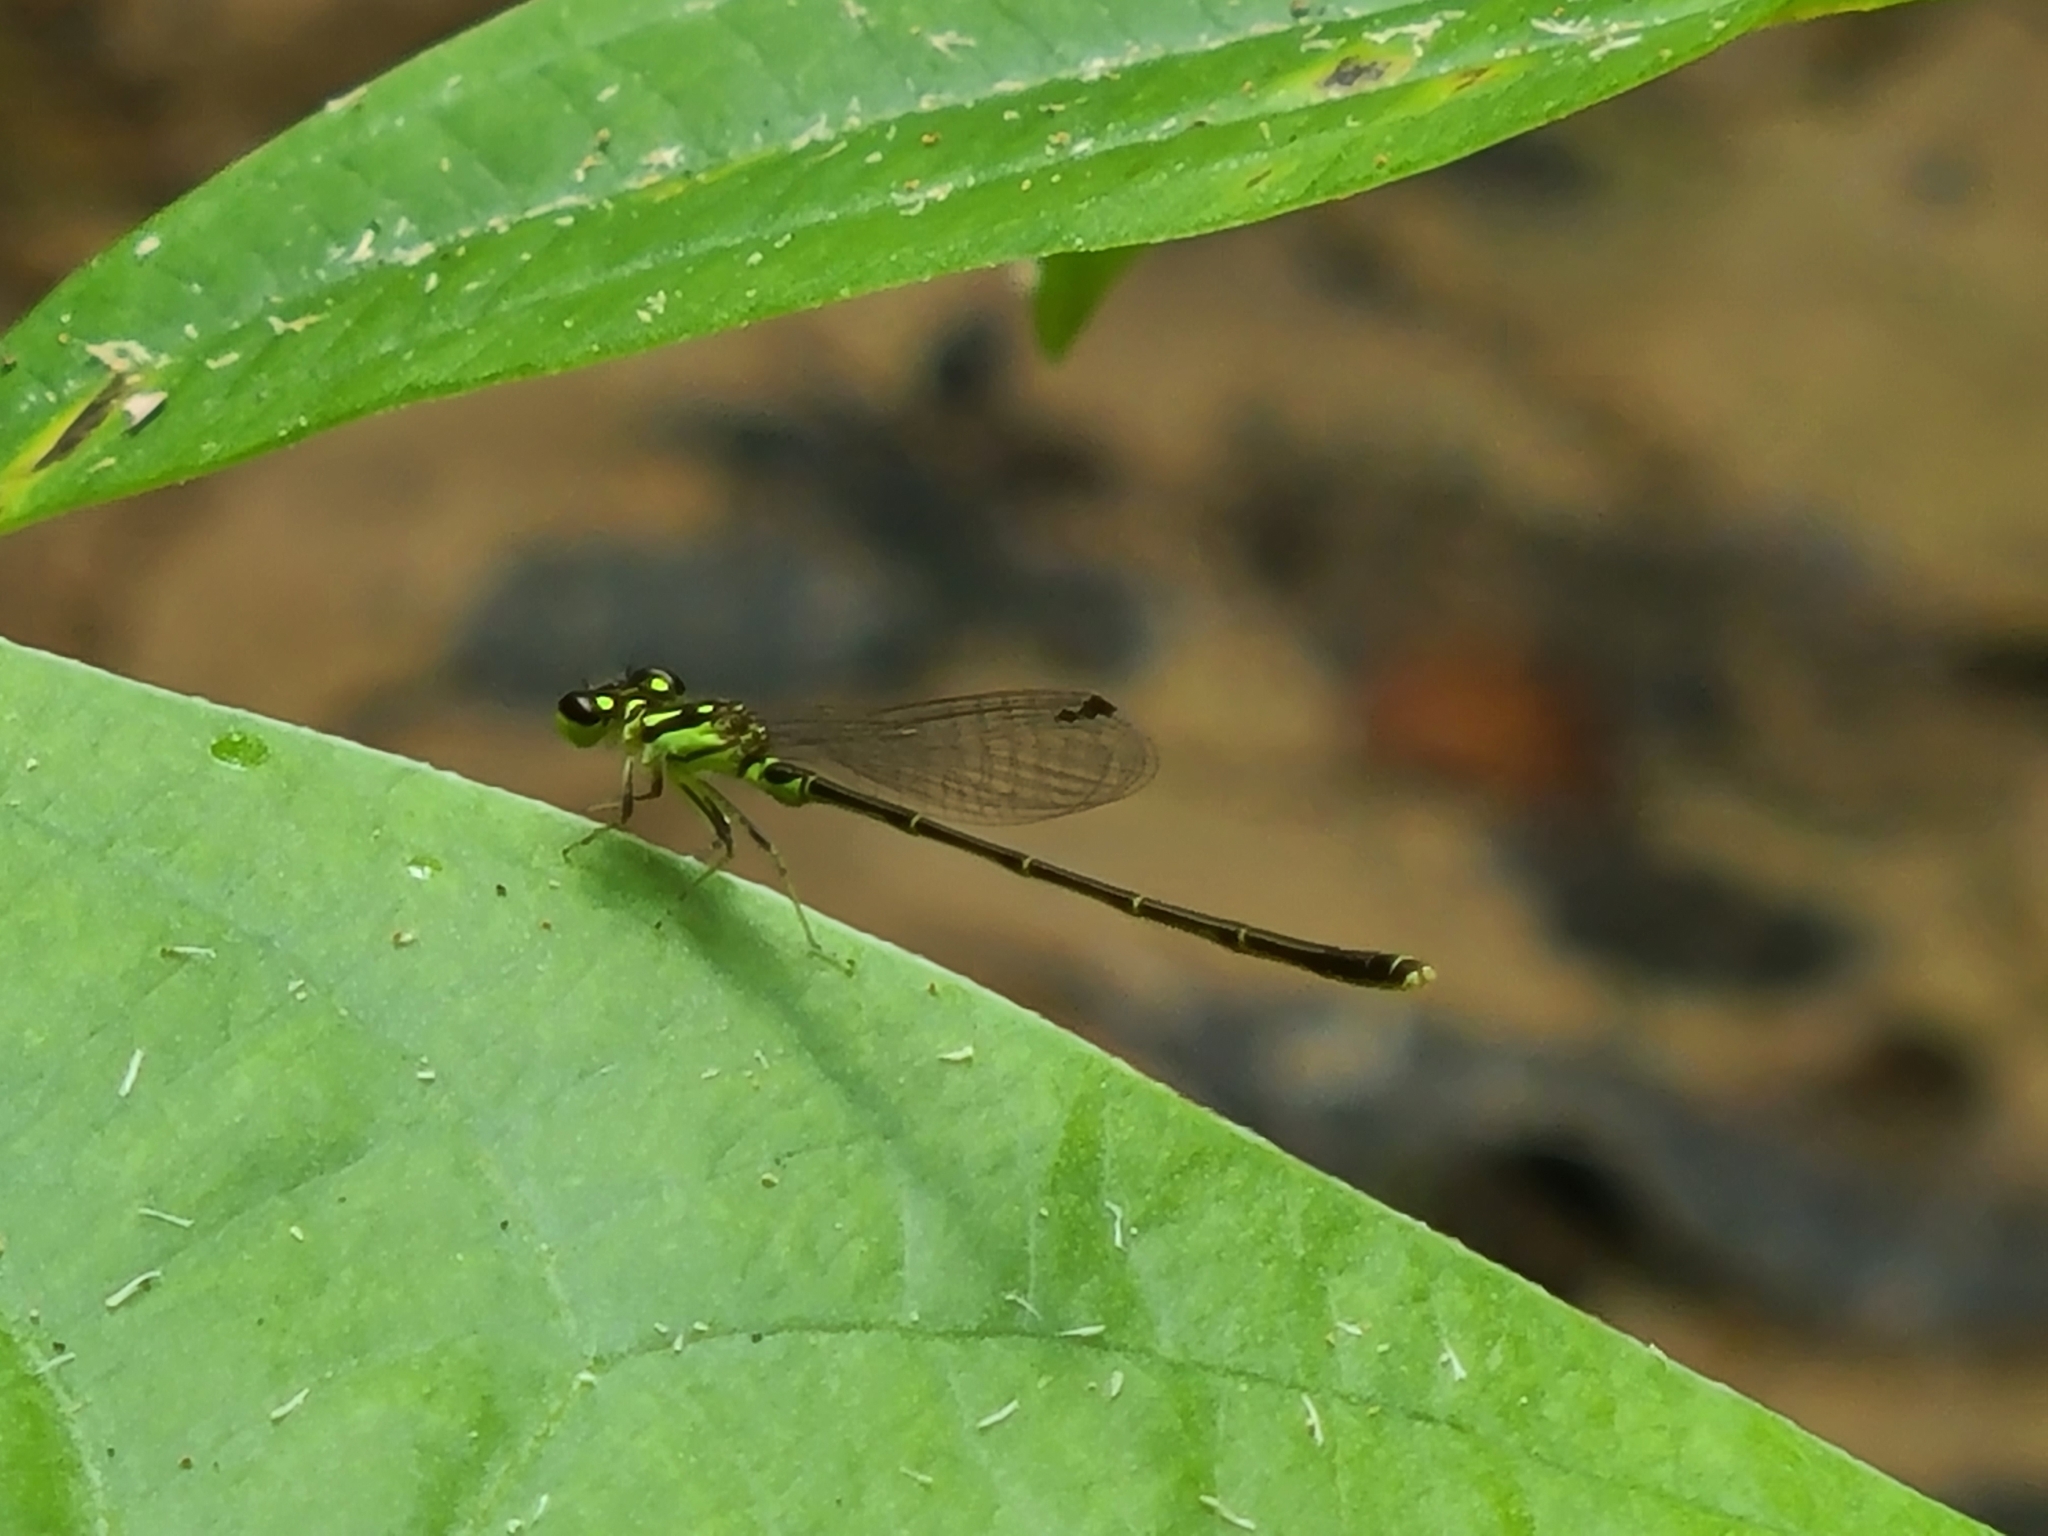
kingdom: Animalia
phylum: Arthropoda
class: Insecta
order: Odonata
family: Coenagrionidae
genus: Ischnura
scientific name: Ischnura posita
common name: Fragile forktail
